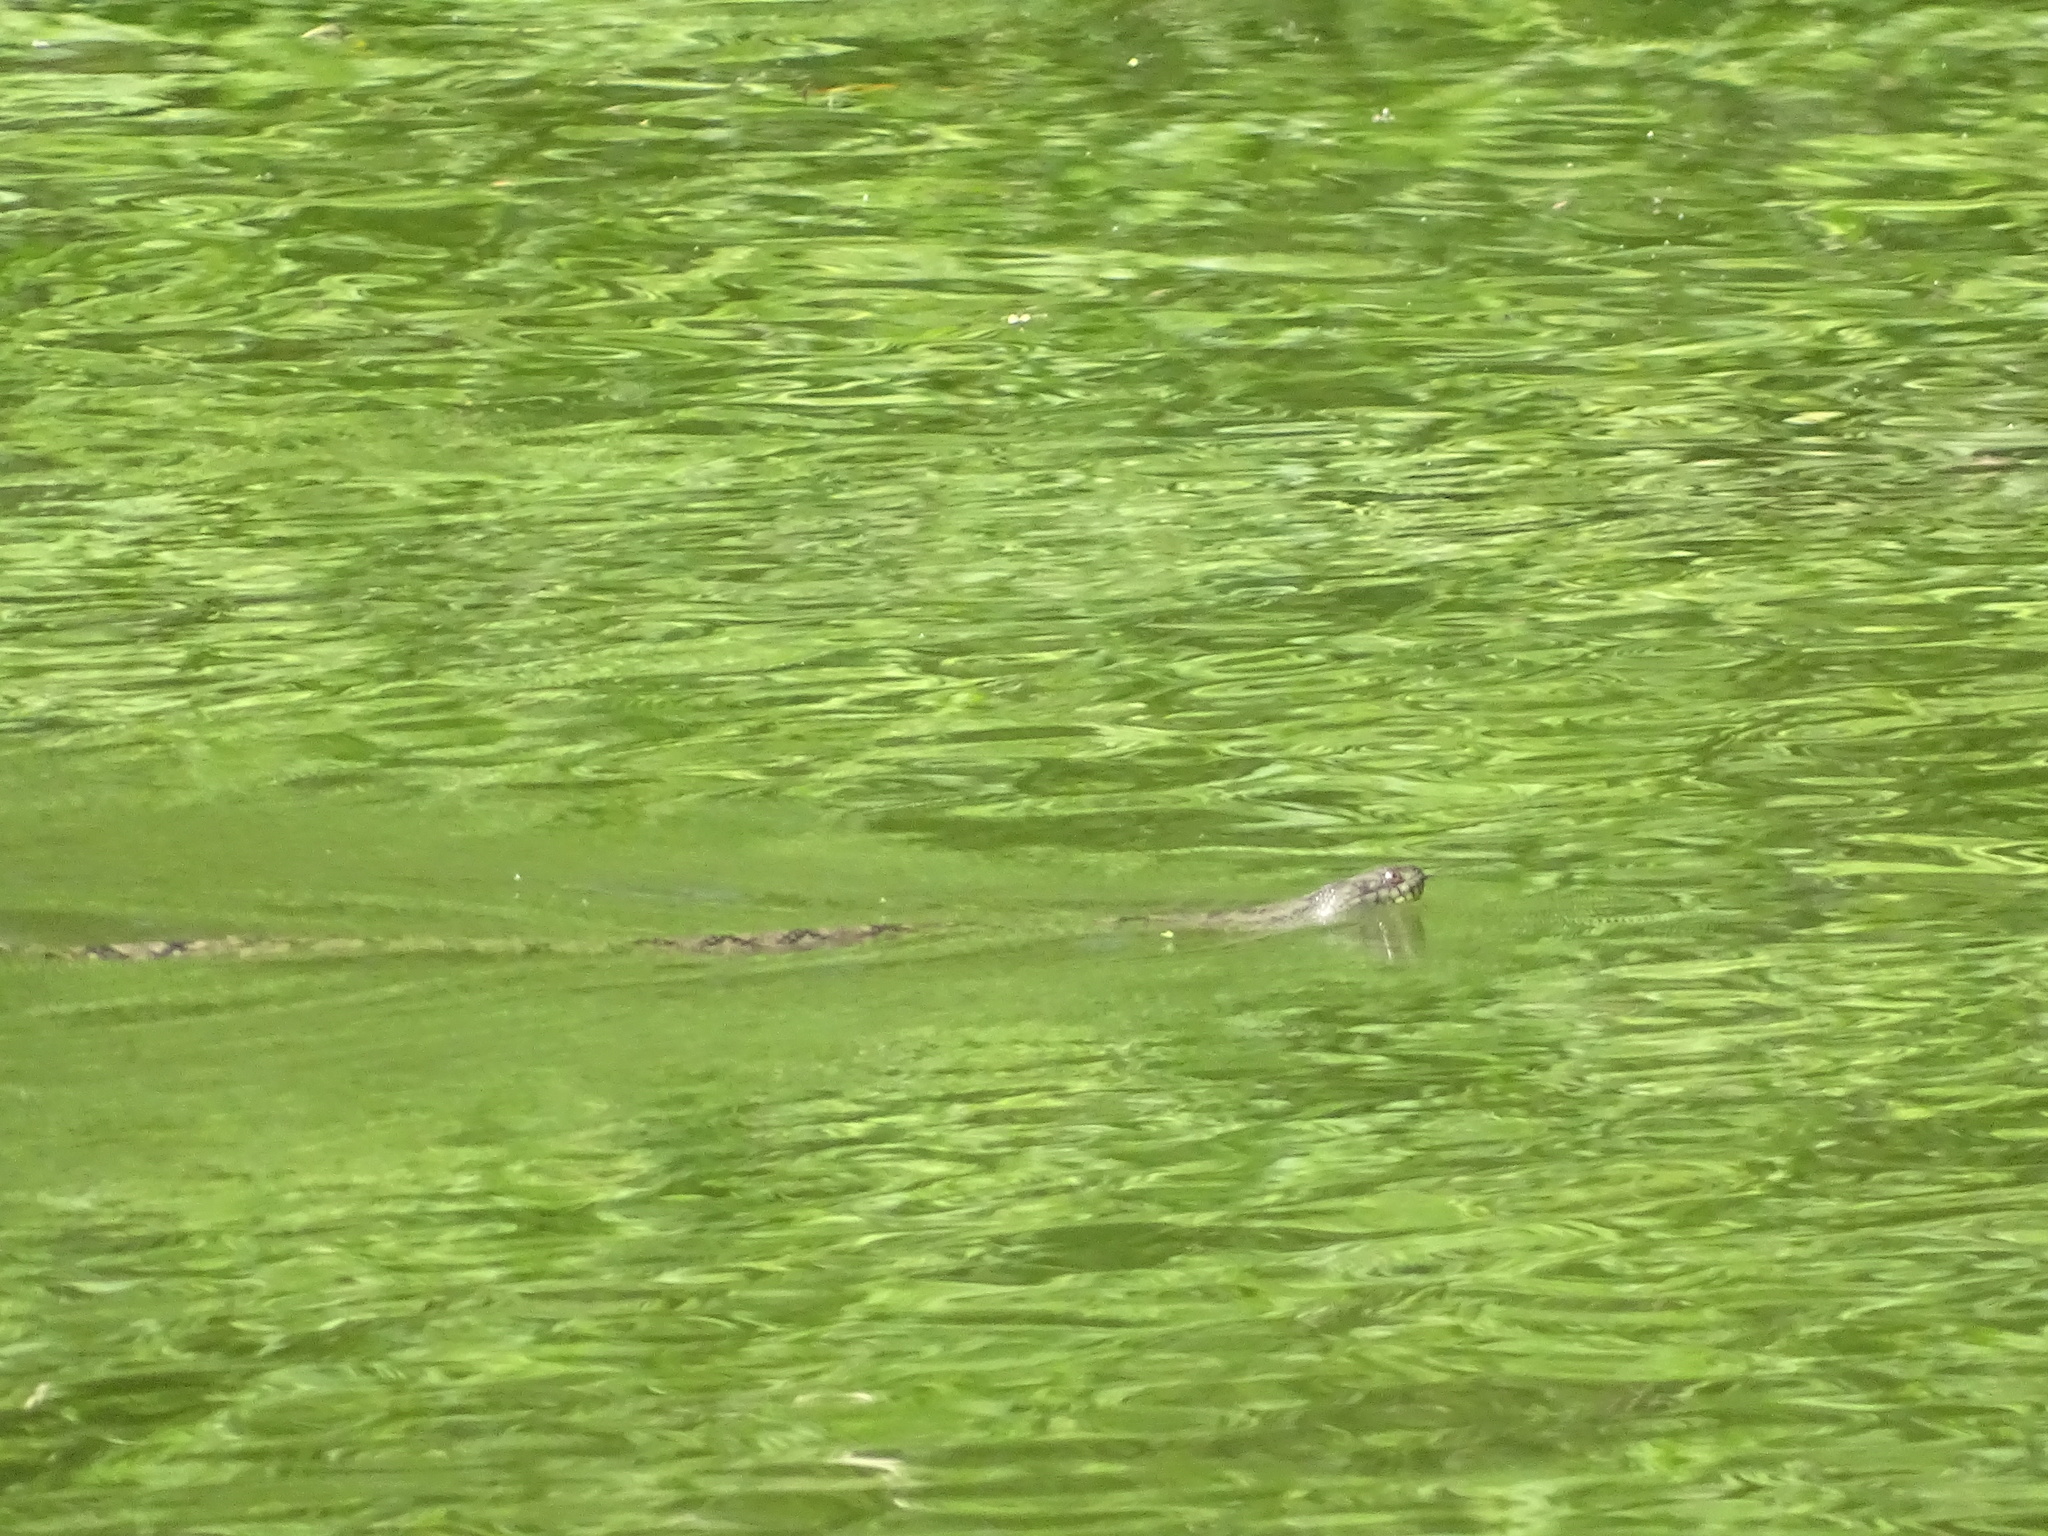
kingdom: Animalia
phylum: Chordata
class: Squamata
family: Colubridae
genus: Nerodia
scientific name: Nerodia rhombifer
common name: Diamondback water snake
